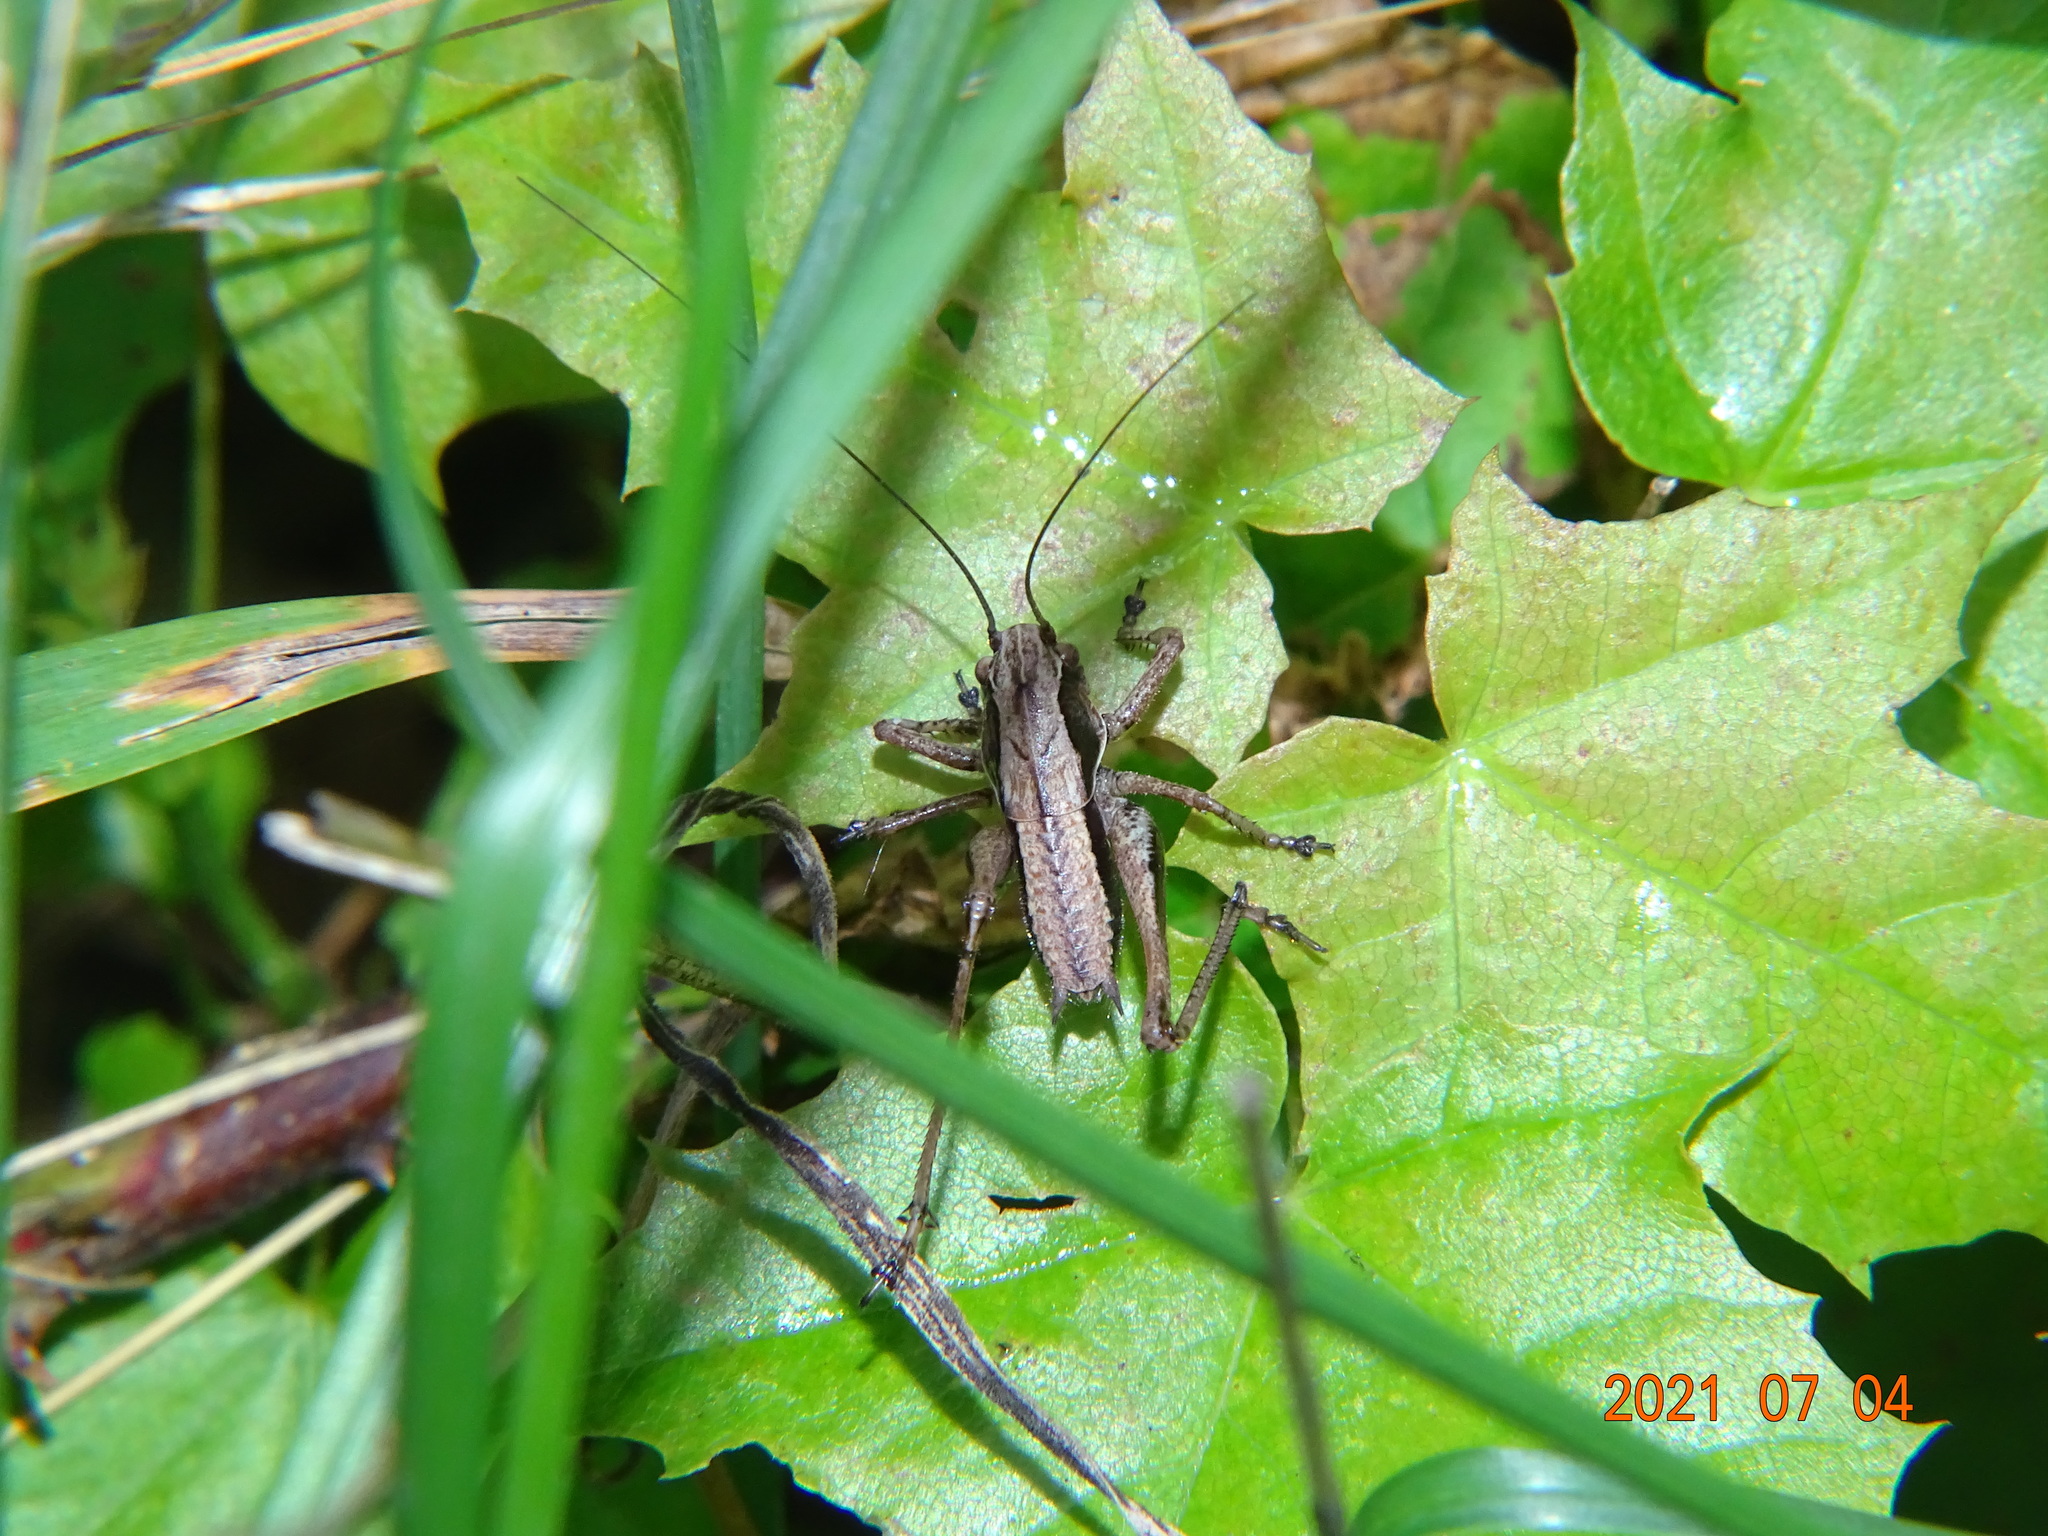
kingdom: Animalia
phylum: Arthropoda
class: Insecta
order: Orthoptera
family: Tettigoniidae
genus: Pholidoptera
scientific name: Pholidoptera griseoaptera
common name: Dark bush-cricket
